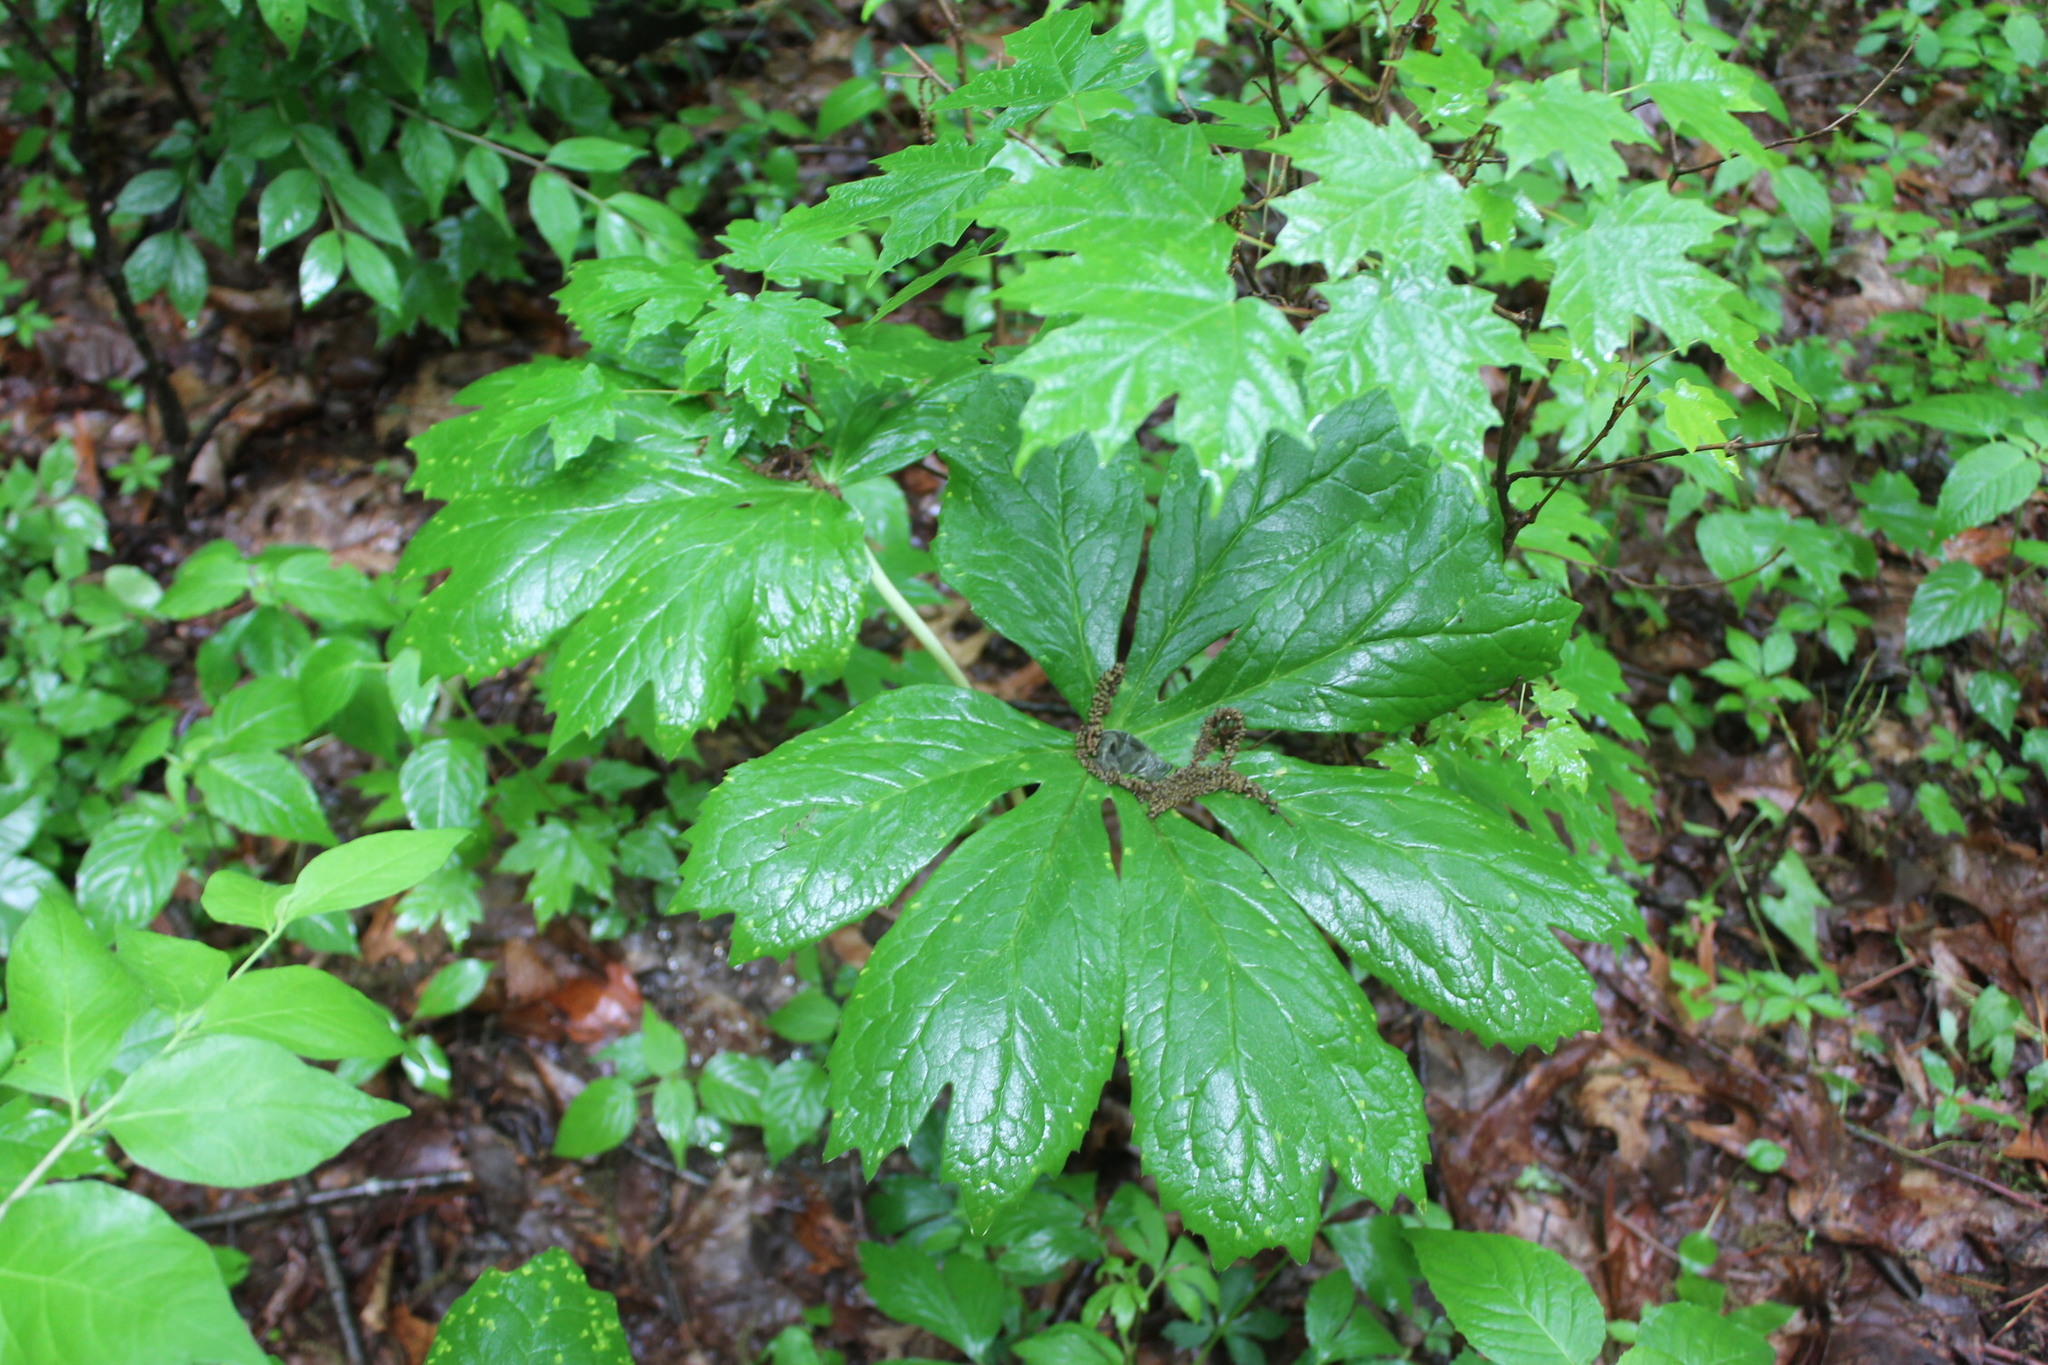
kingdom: Plantae
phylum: Tracheophyta
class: Magnoliopsida
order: Ranunculales
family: Berberidaceae
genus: Podophyllum
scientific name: Podophyllum peltatum
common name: Wild mandrake
